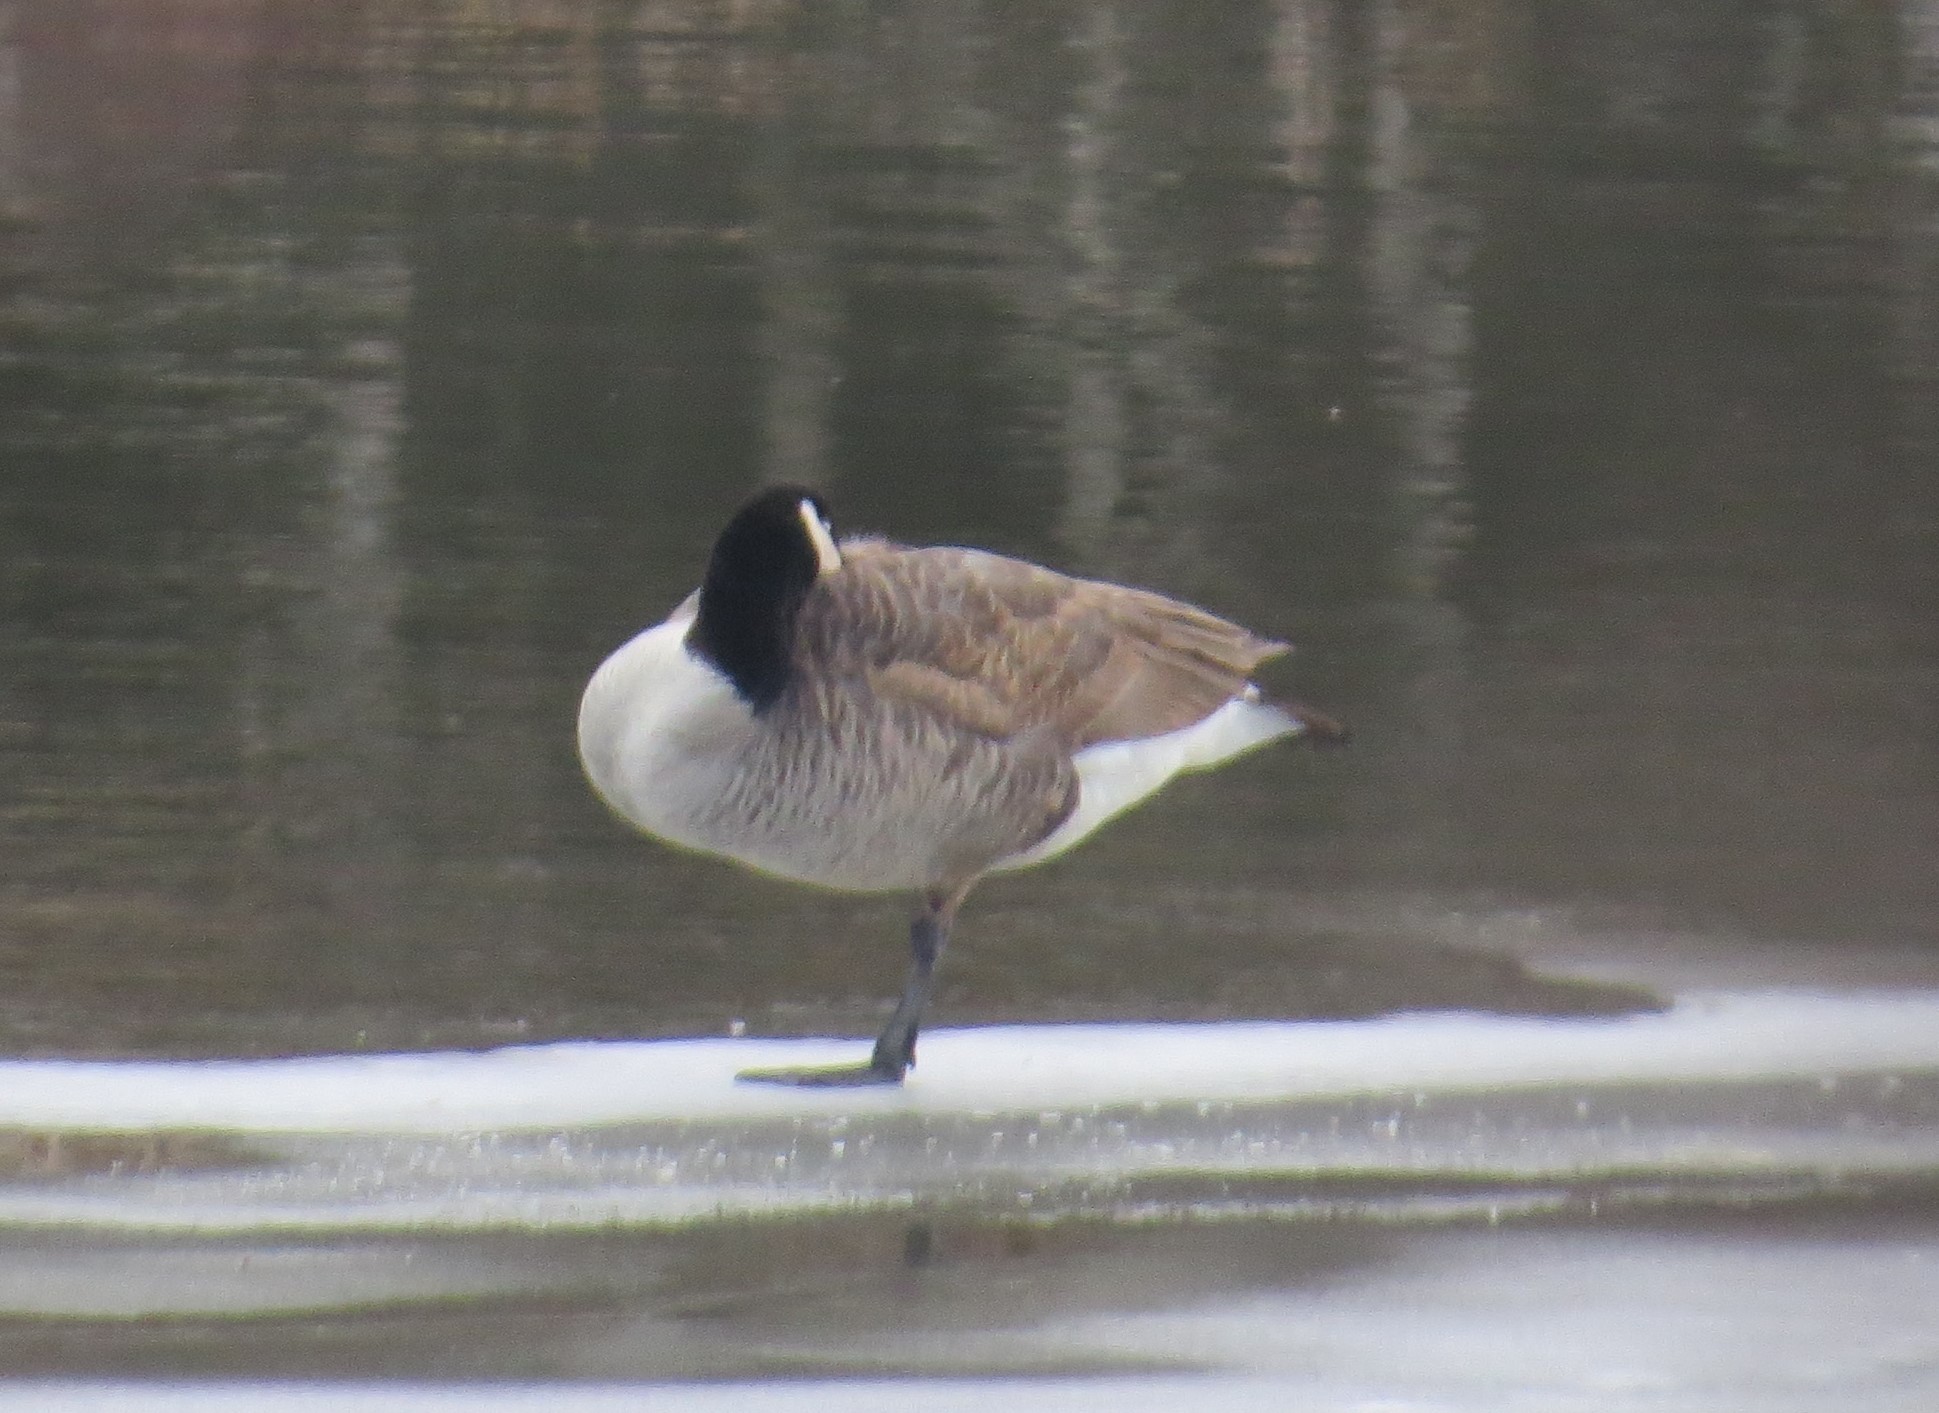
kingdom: Animalia
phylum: Chordata
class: Aves
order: Anseriformes
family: Anatidae
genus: Branta
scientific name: Branta canadensis
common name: Canada goose
